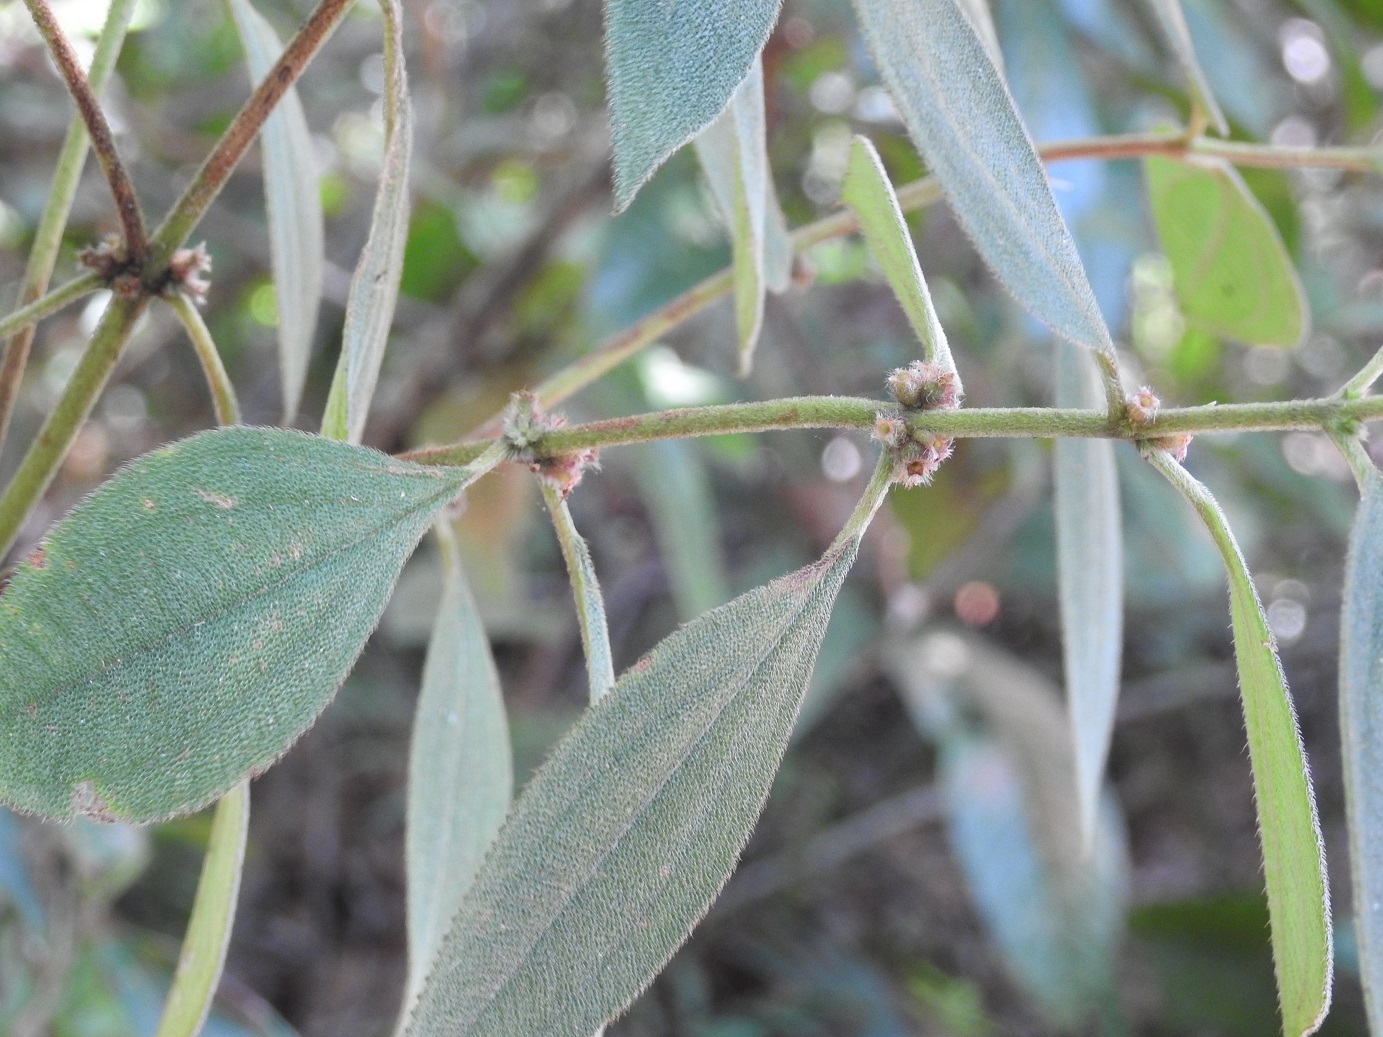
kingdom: Plantae
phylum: Tracheophyta
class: Magnoliopsida
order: Myrtales
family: Melastomataceae
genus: Miconia
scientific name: Miconia sericea
